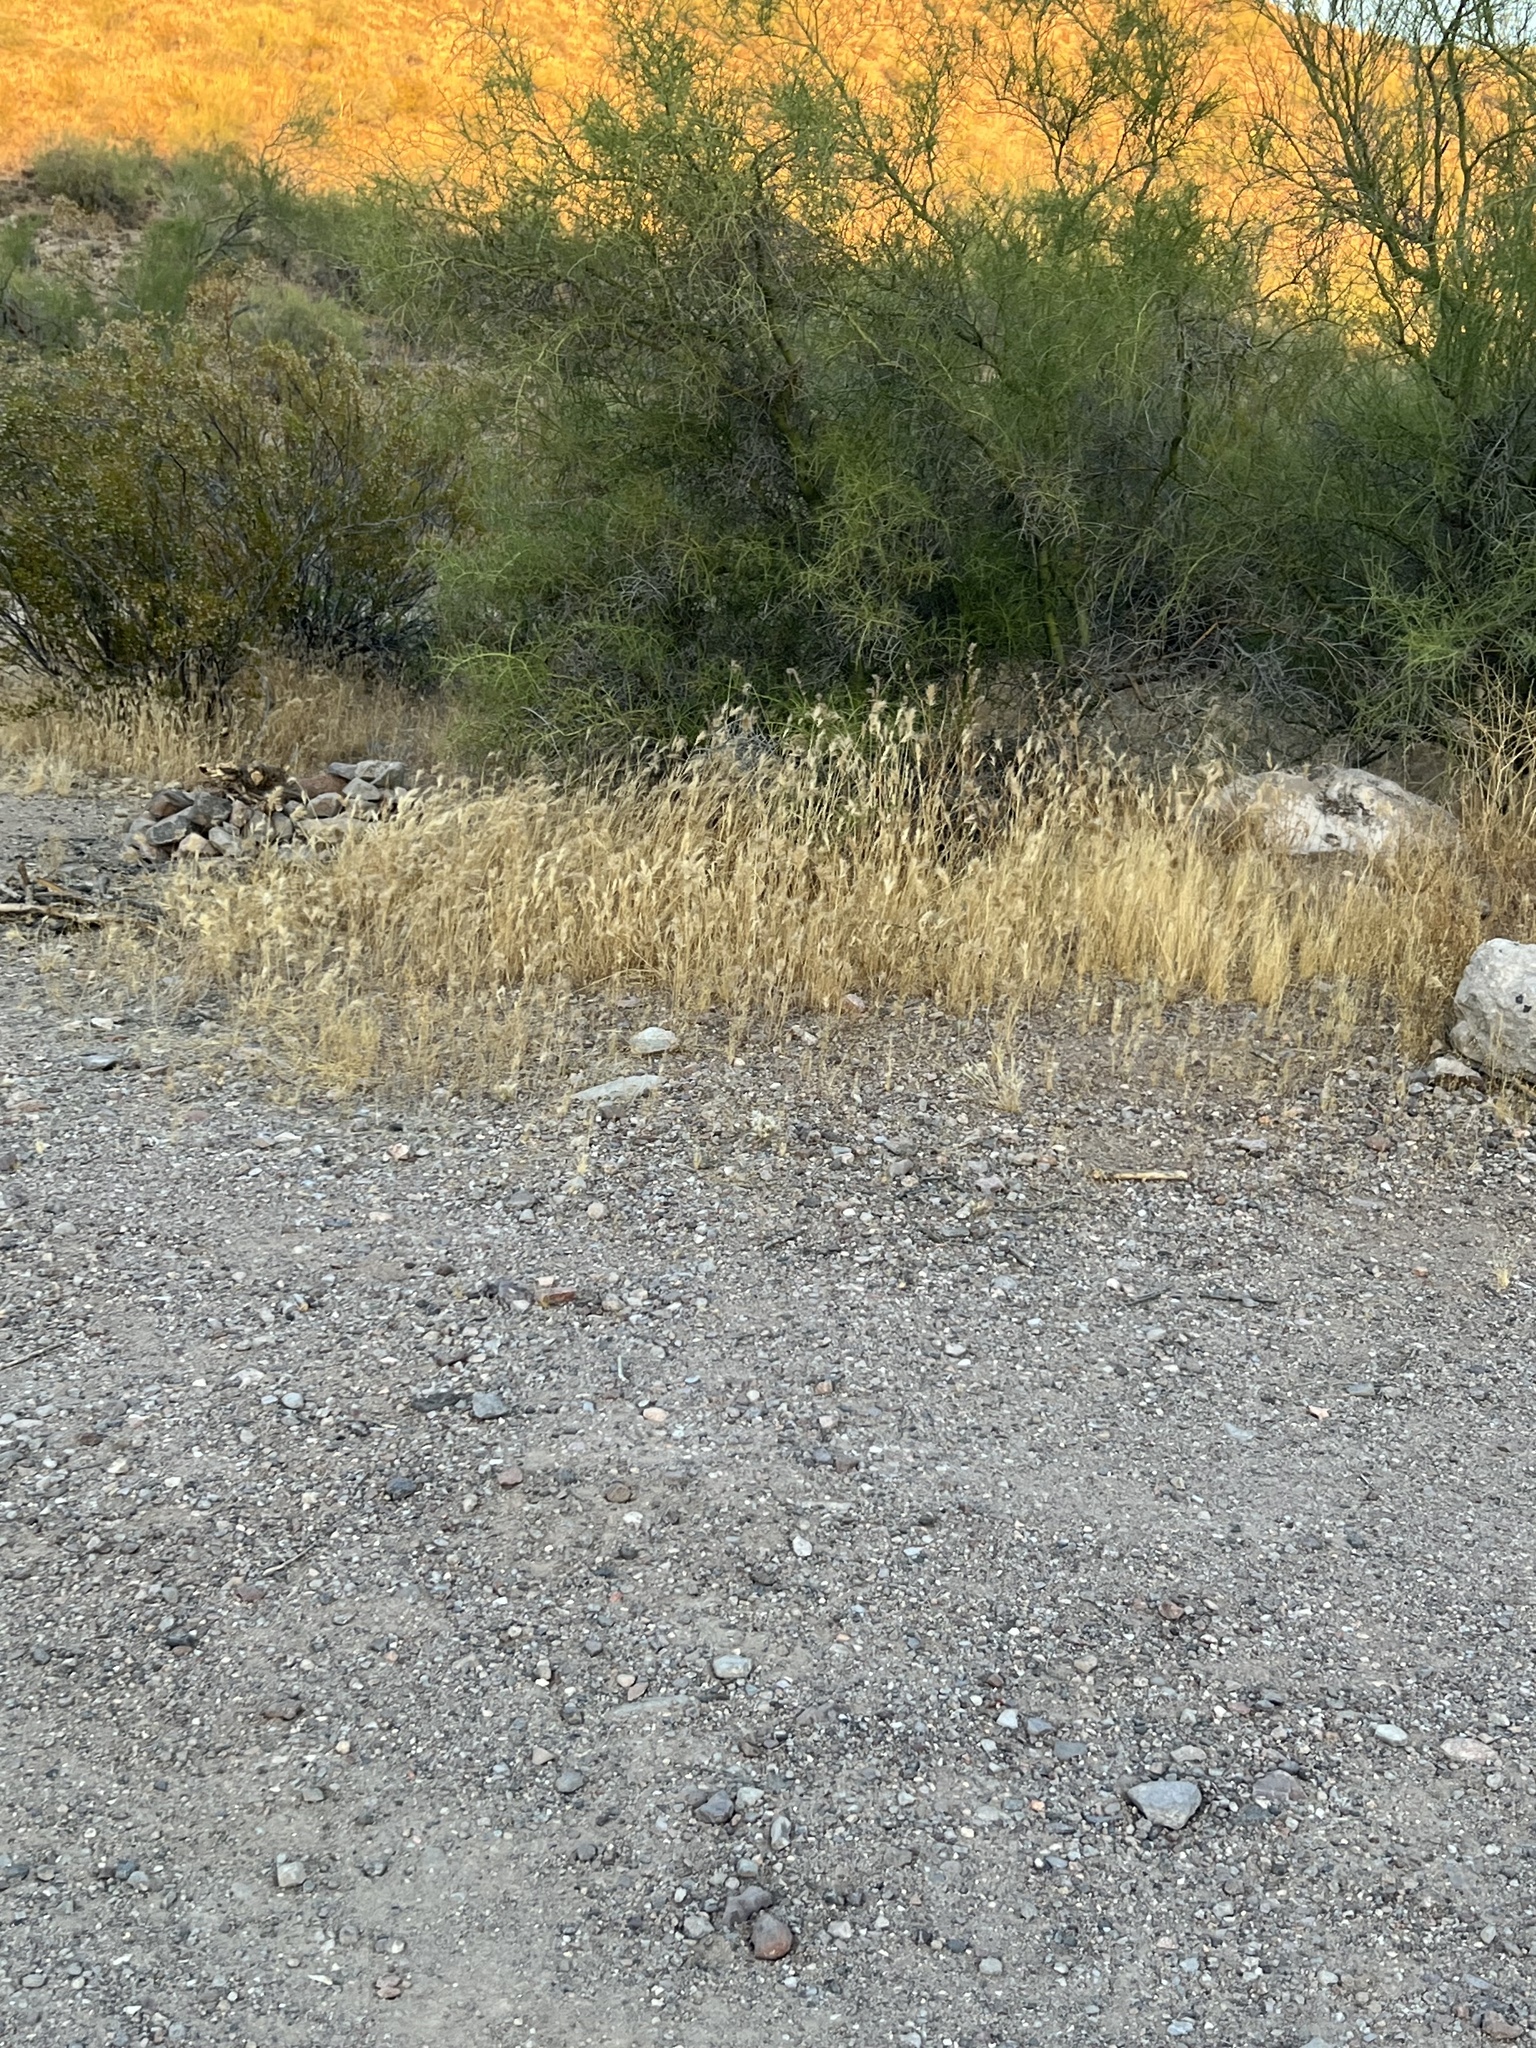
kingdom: Plantae
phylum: Tracheophyta
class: Liliopsida
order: Poales
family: Poaceae
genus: Bromus
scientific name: Bromus rubens
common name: Red brome
